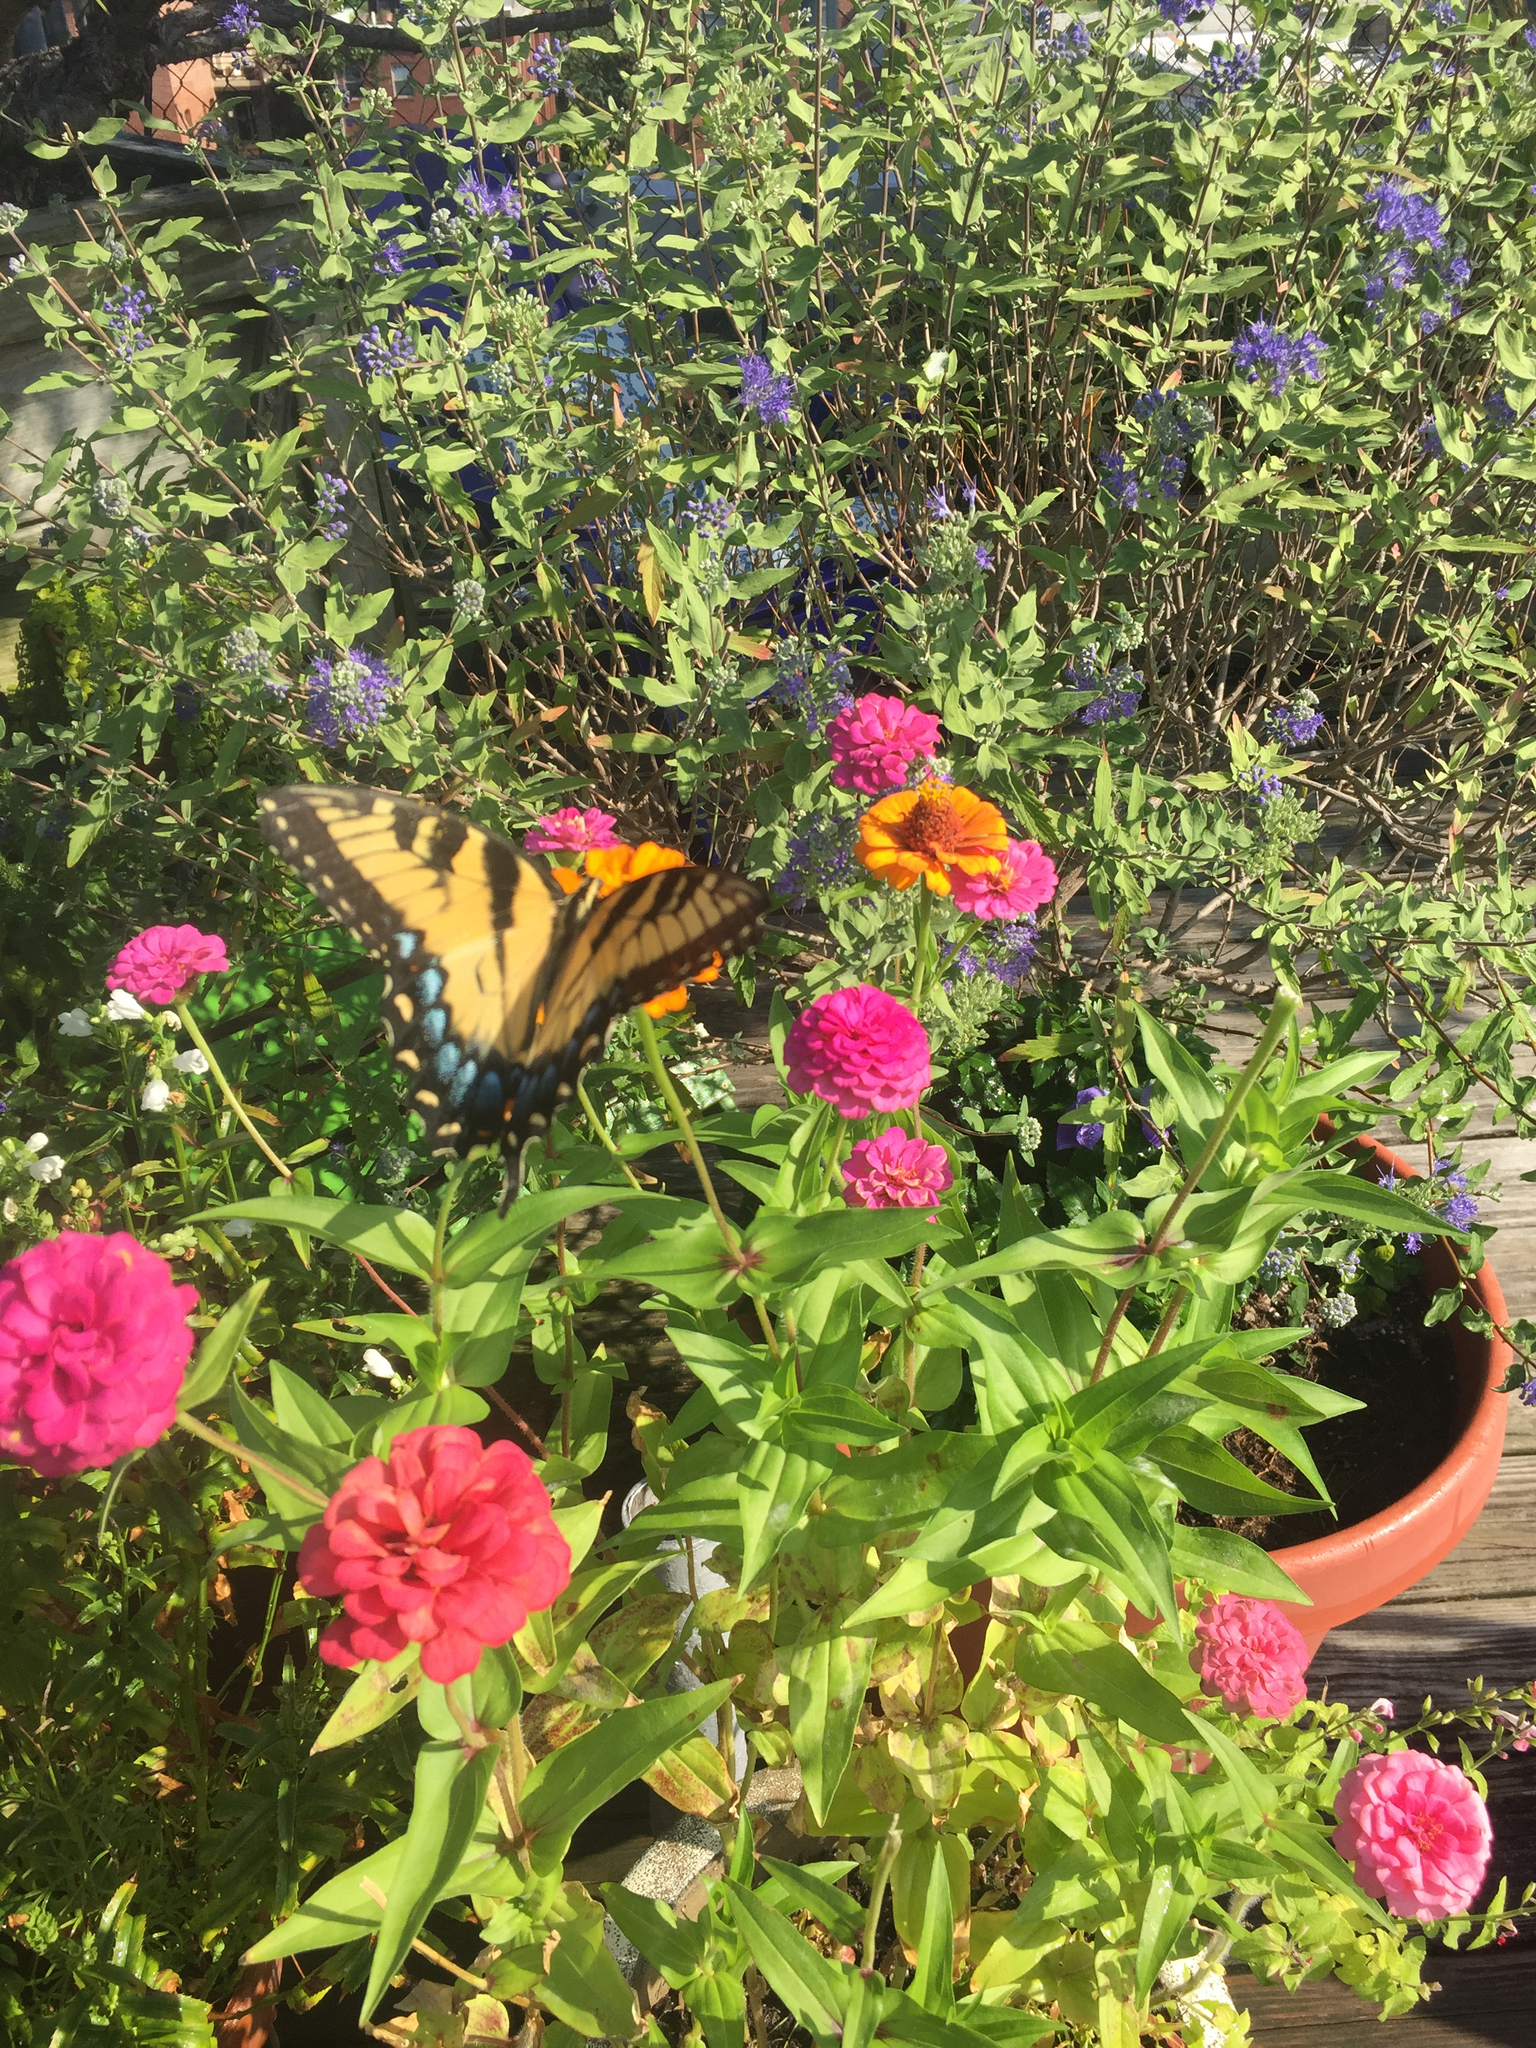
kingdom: Animalia
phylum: Arthropoda
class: Insecta
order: Lepidoptera
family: Papilionidae
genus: Papilio
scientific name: Papilio glaucus
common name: Tiger swallowtail
